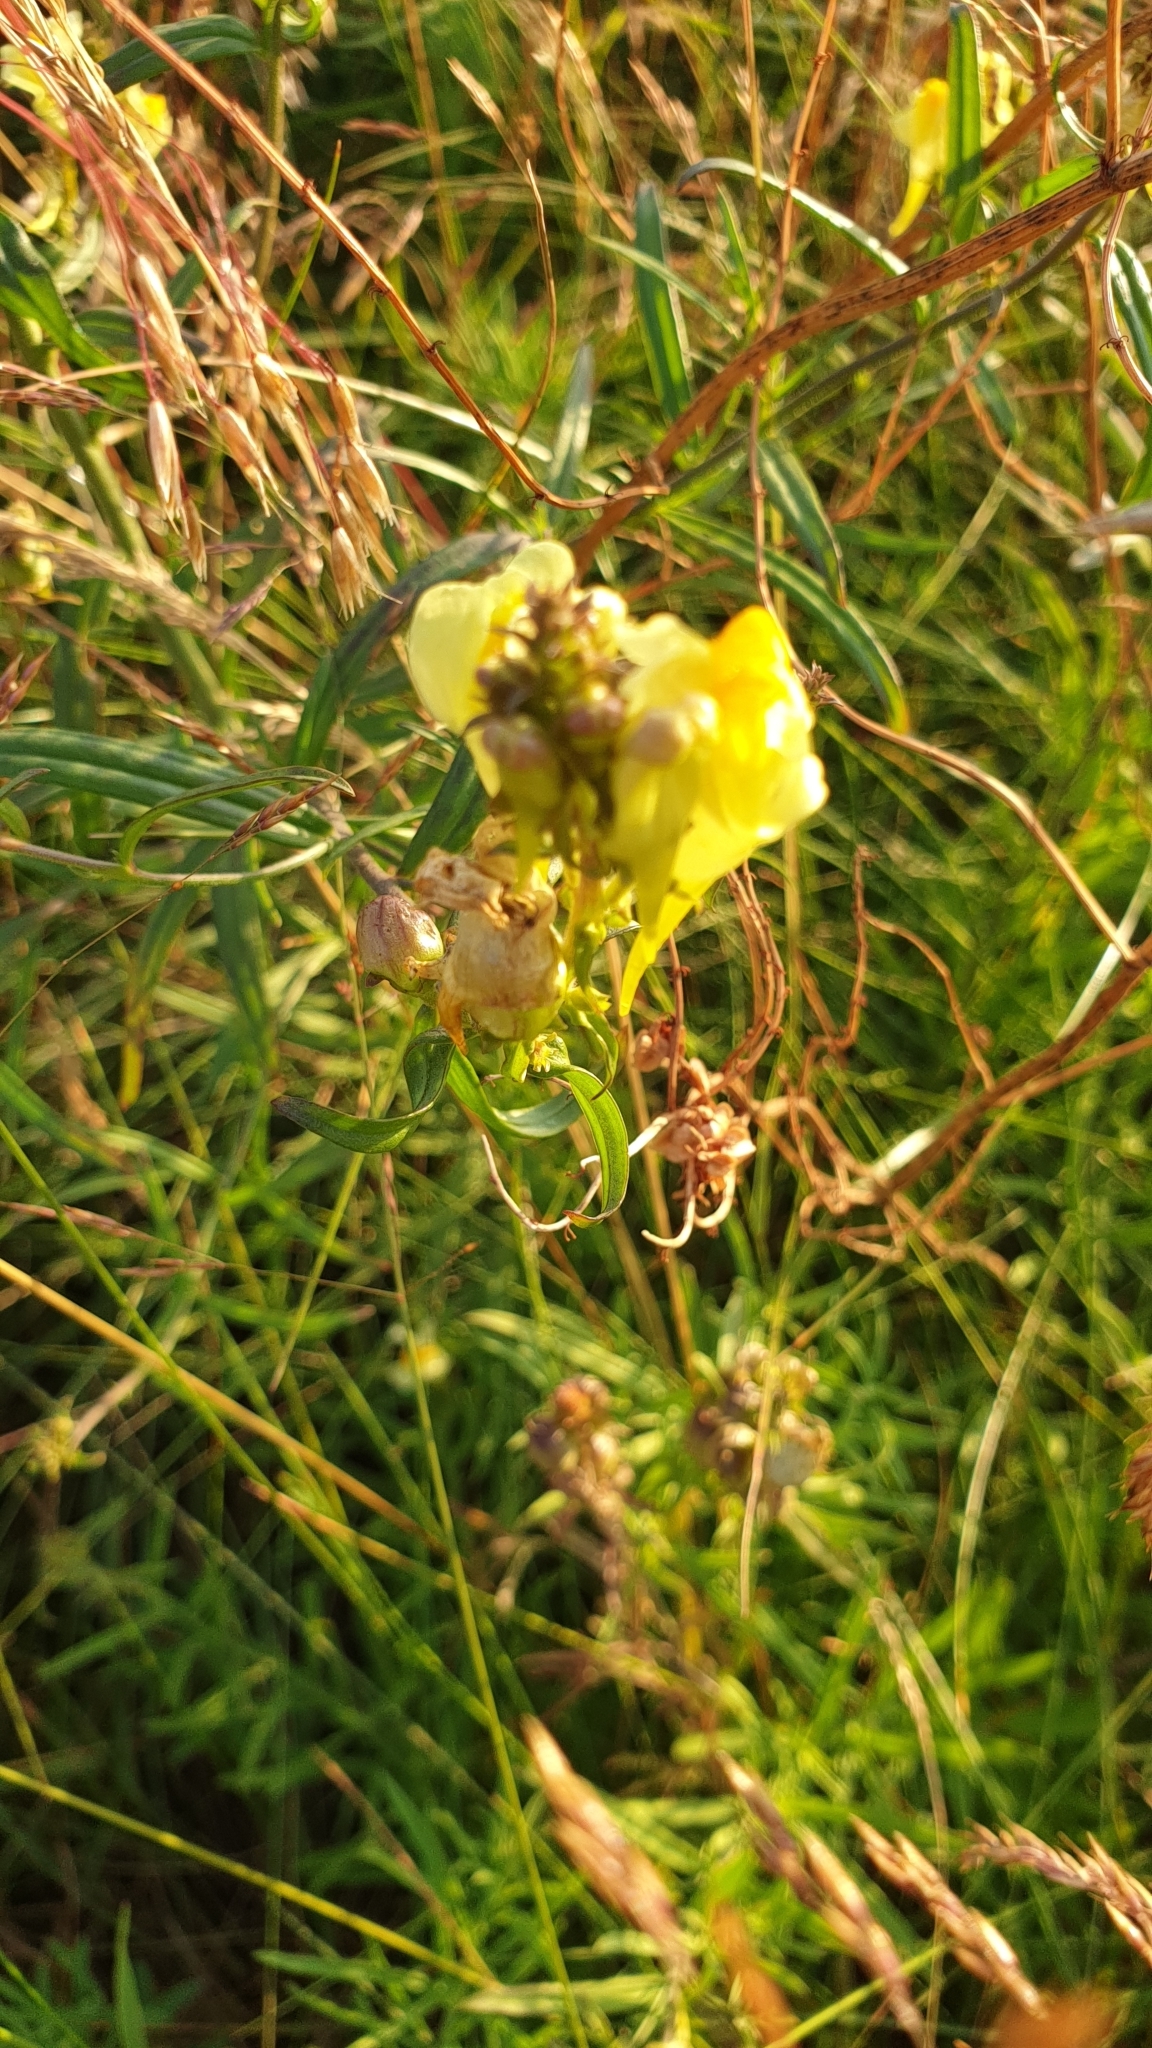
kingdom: Plantae
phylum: Tracheophyta
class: Magnoliopsida
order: Lamiales
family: Plantaginaceae
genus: Linaria
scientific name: Linaria vulgaris
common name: Butter and eggs
